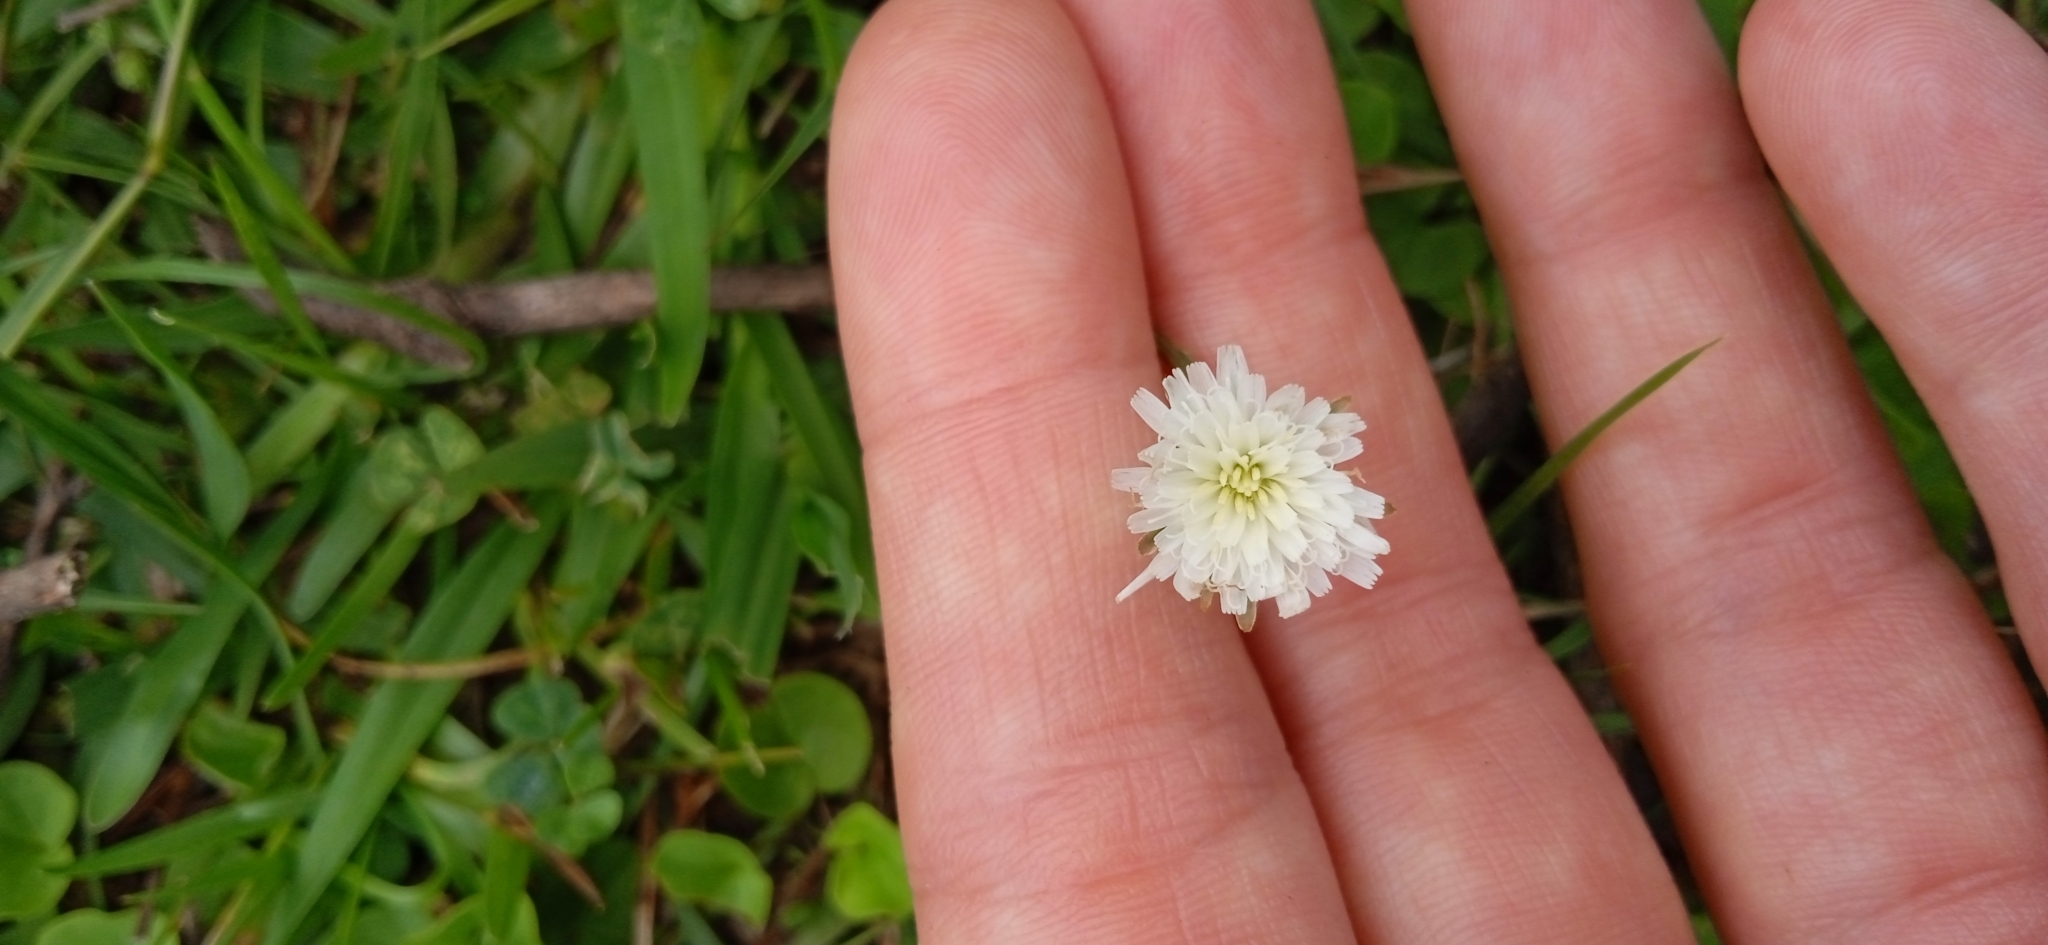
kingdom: Plantae
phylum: Tracheophyta
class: Magnoliopsida
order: Asterales
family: Asteraceae
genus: Hypochaeris
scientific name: Hypochaeris albiflora
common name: White flatweed
